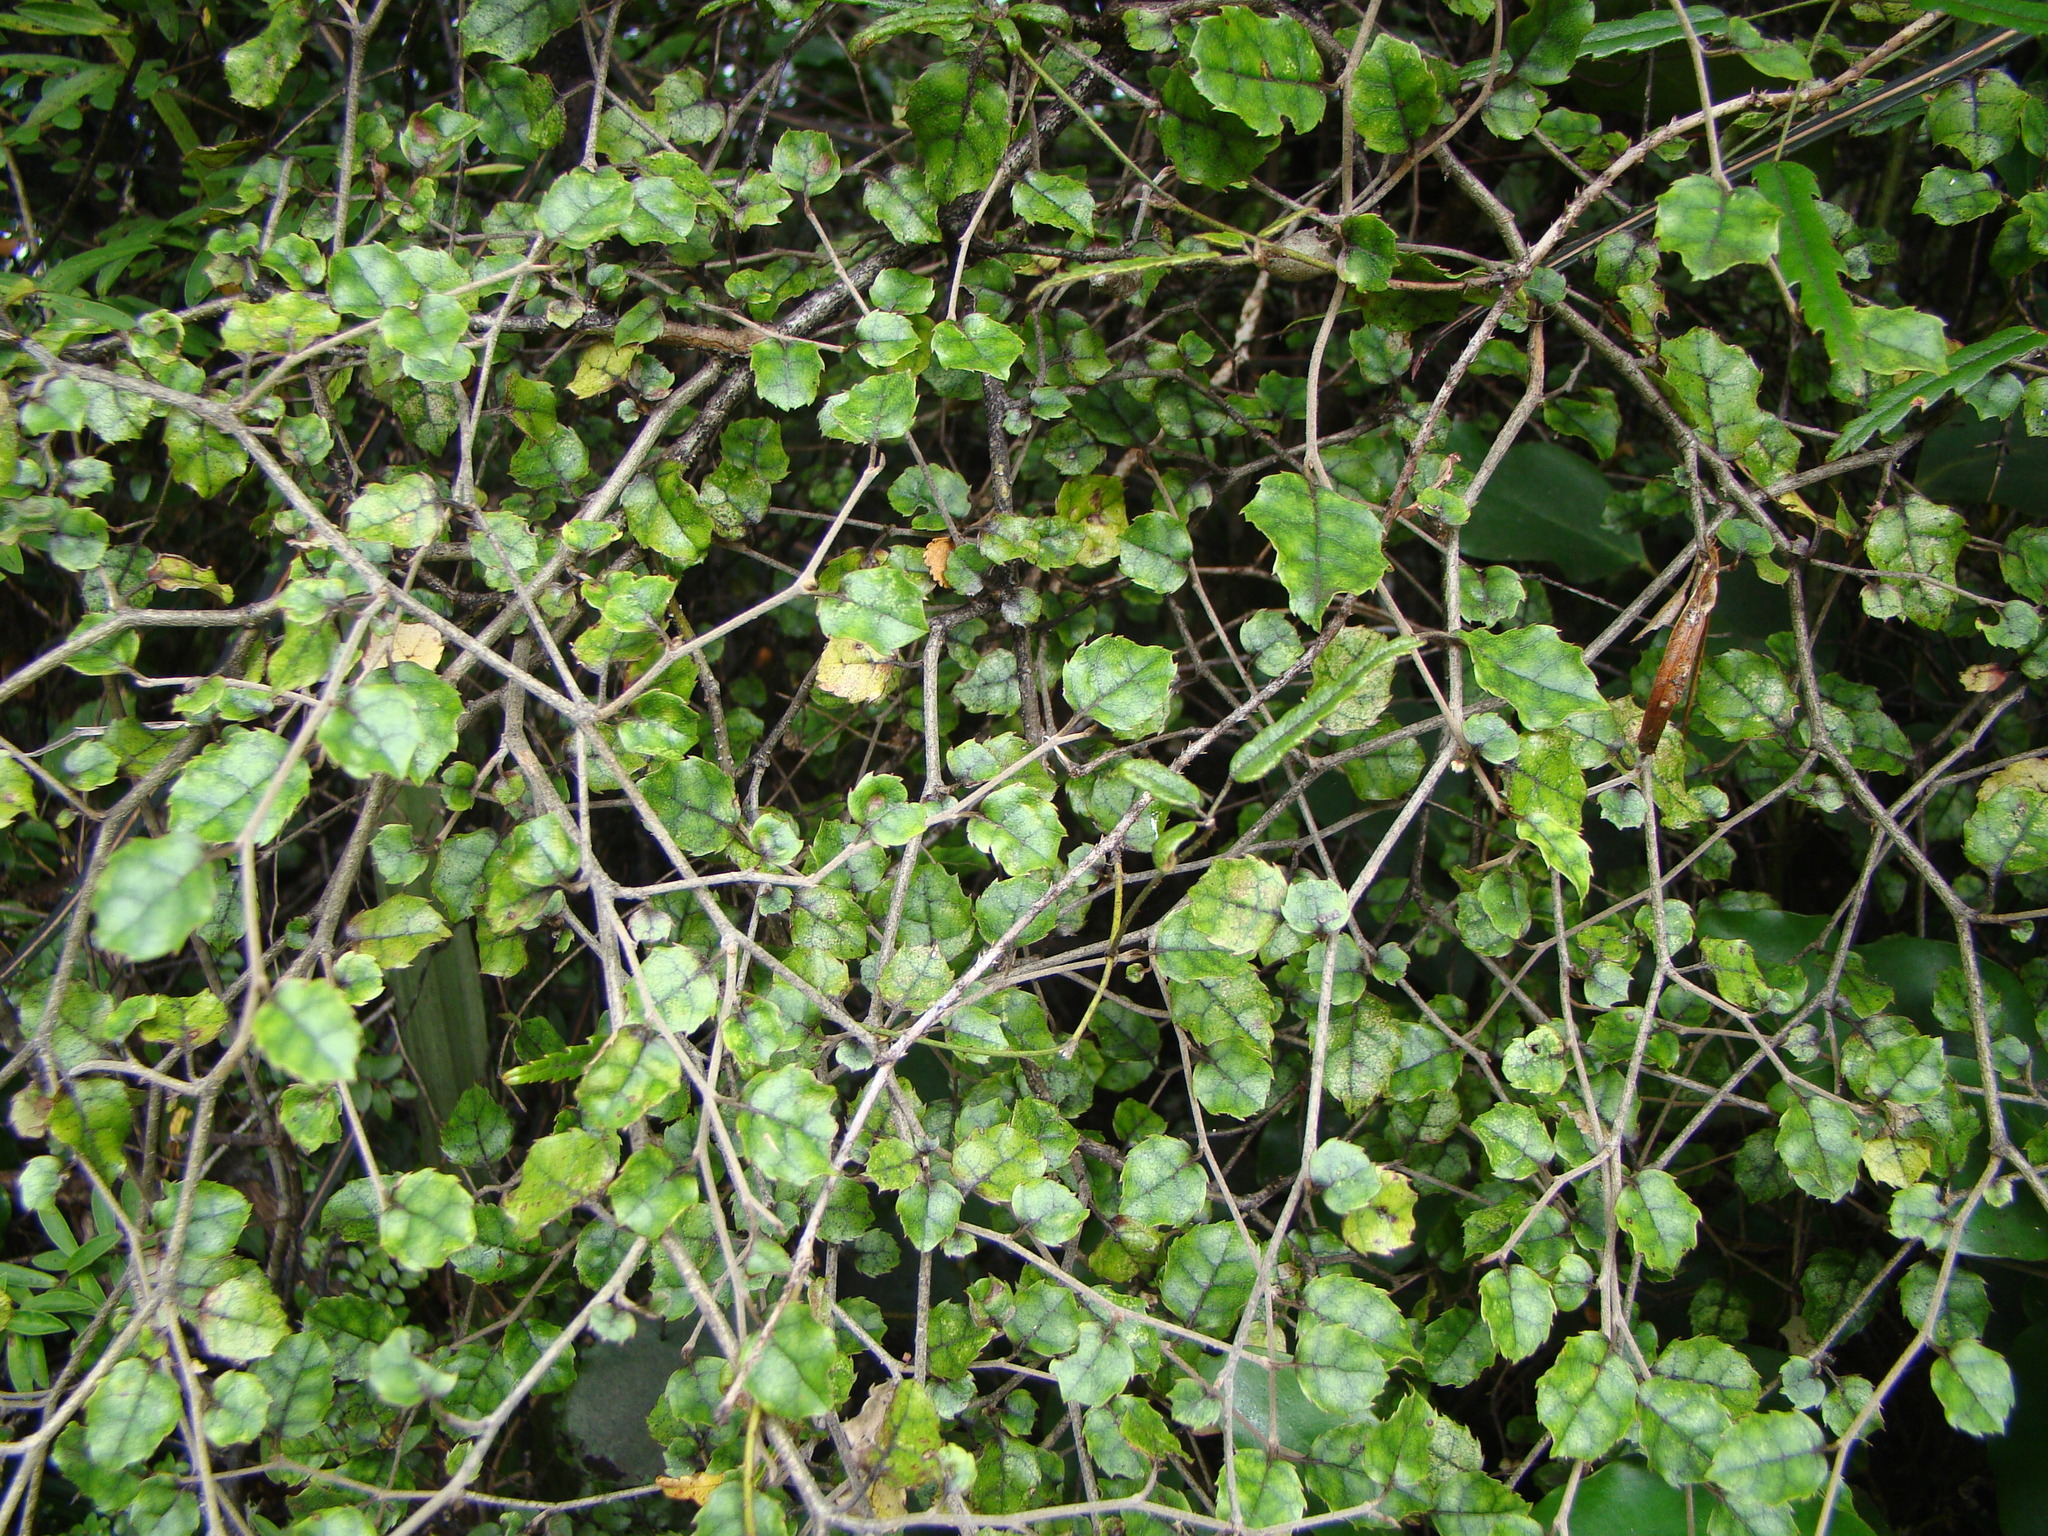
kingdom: Plantae
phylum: Tracheophyta
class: Magnoliopsida
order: Asterales
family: Rousseaceae
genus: Carpodetus
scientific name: Carpodetus serratus
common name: White mapau
